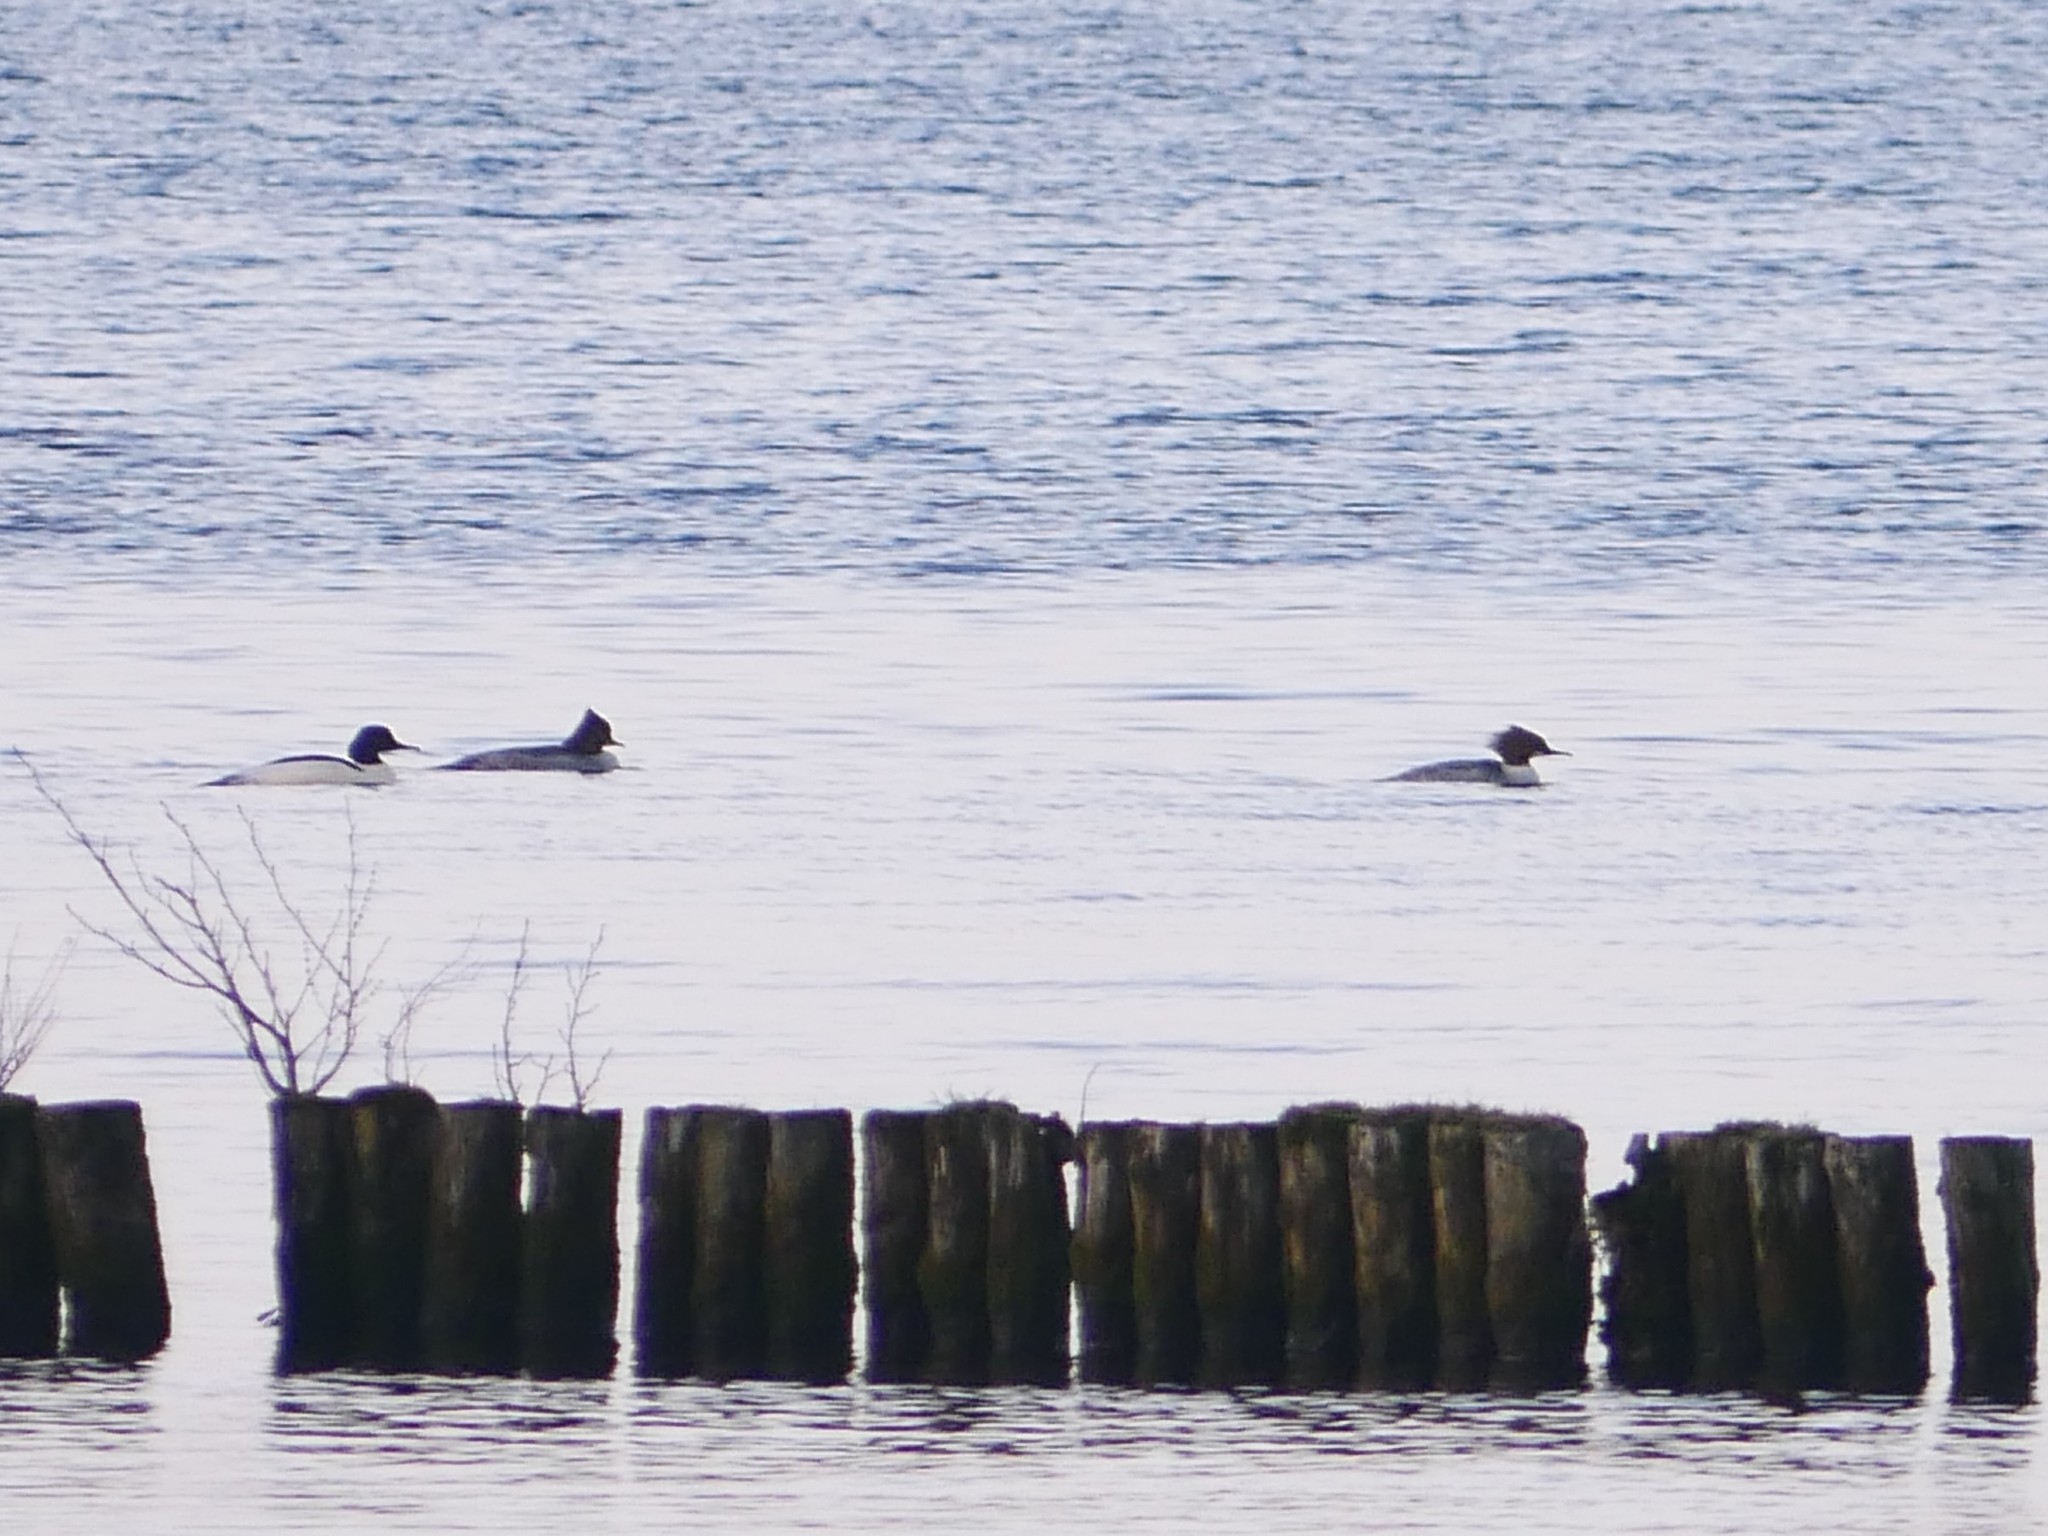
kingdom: Animalia
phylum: Chordata
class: Aves
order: Anseriformes
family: Anatidae
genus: Mergus
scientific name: Mergus merganser
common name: Common merganser
